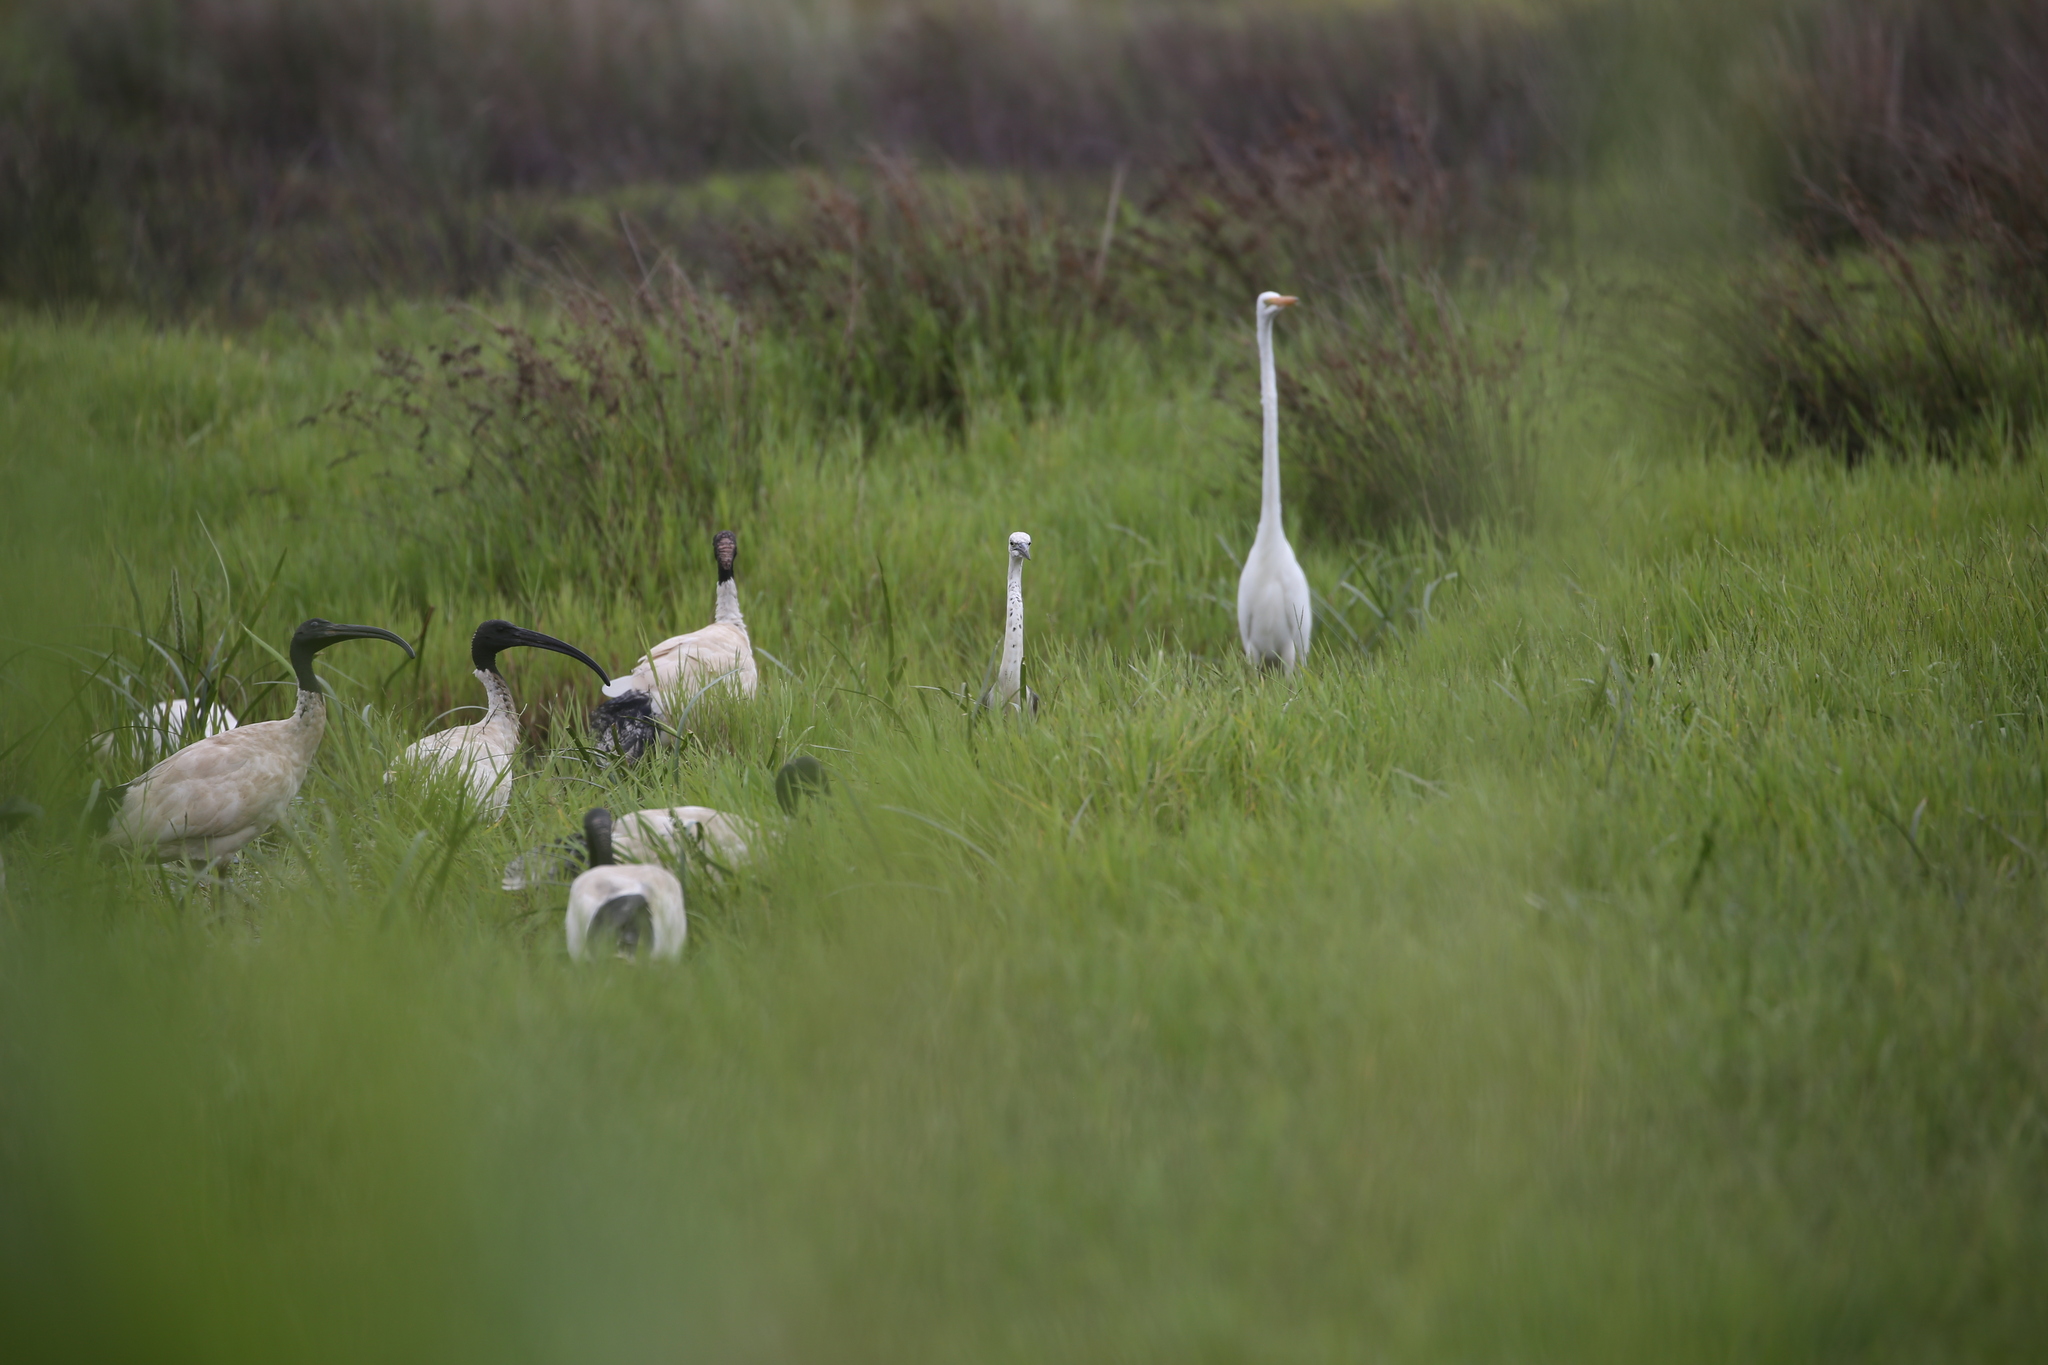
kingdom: Animalia
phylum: Chordata
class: Aves
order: Pelecaniformes
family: Ardeidae
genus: Ardea
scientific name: Ardea pacifica
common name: White-necked heron
